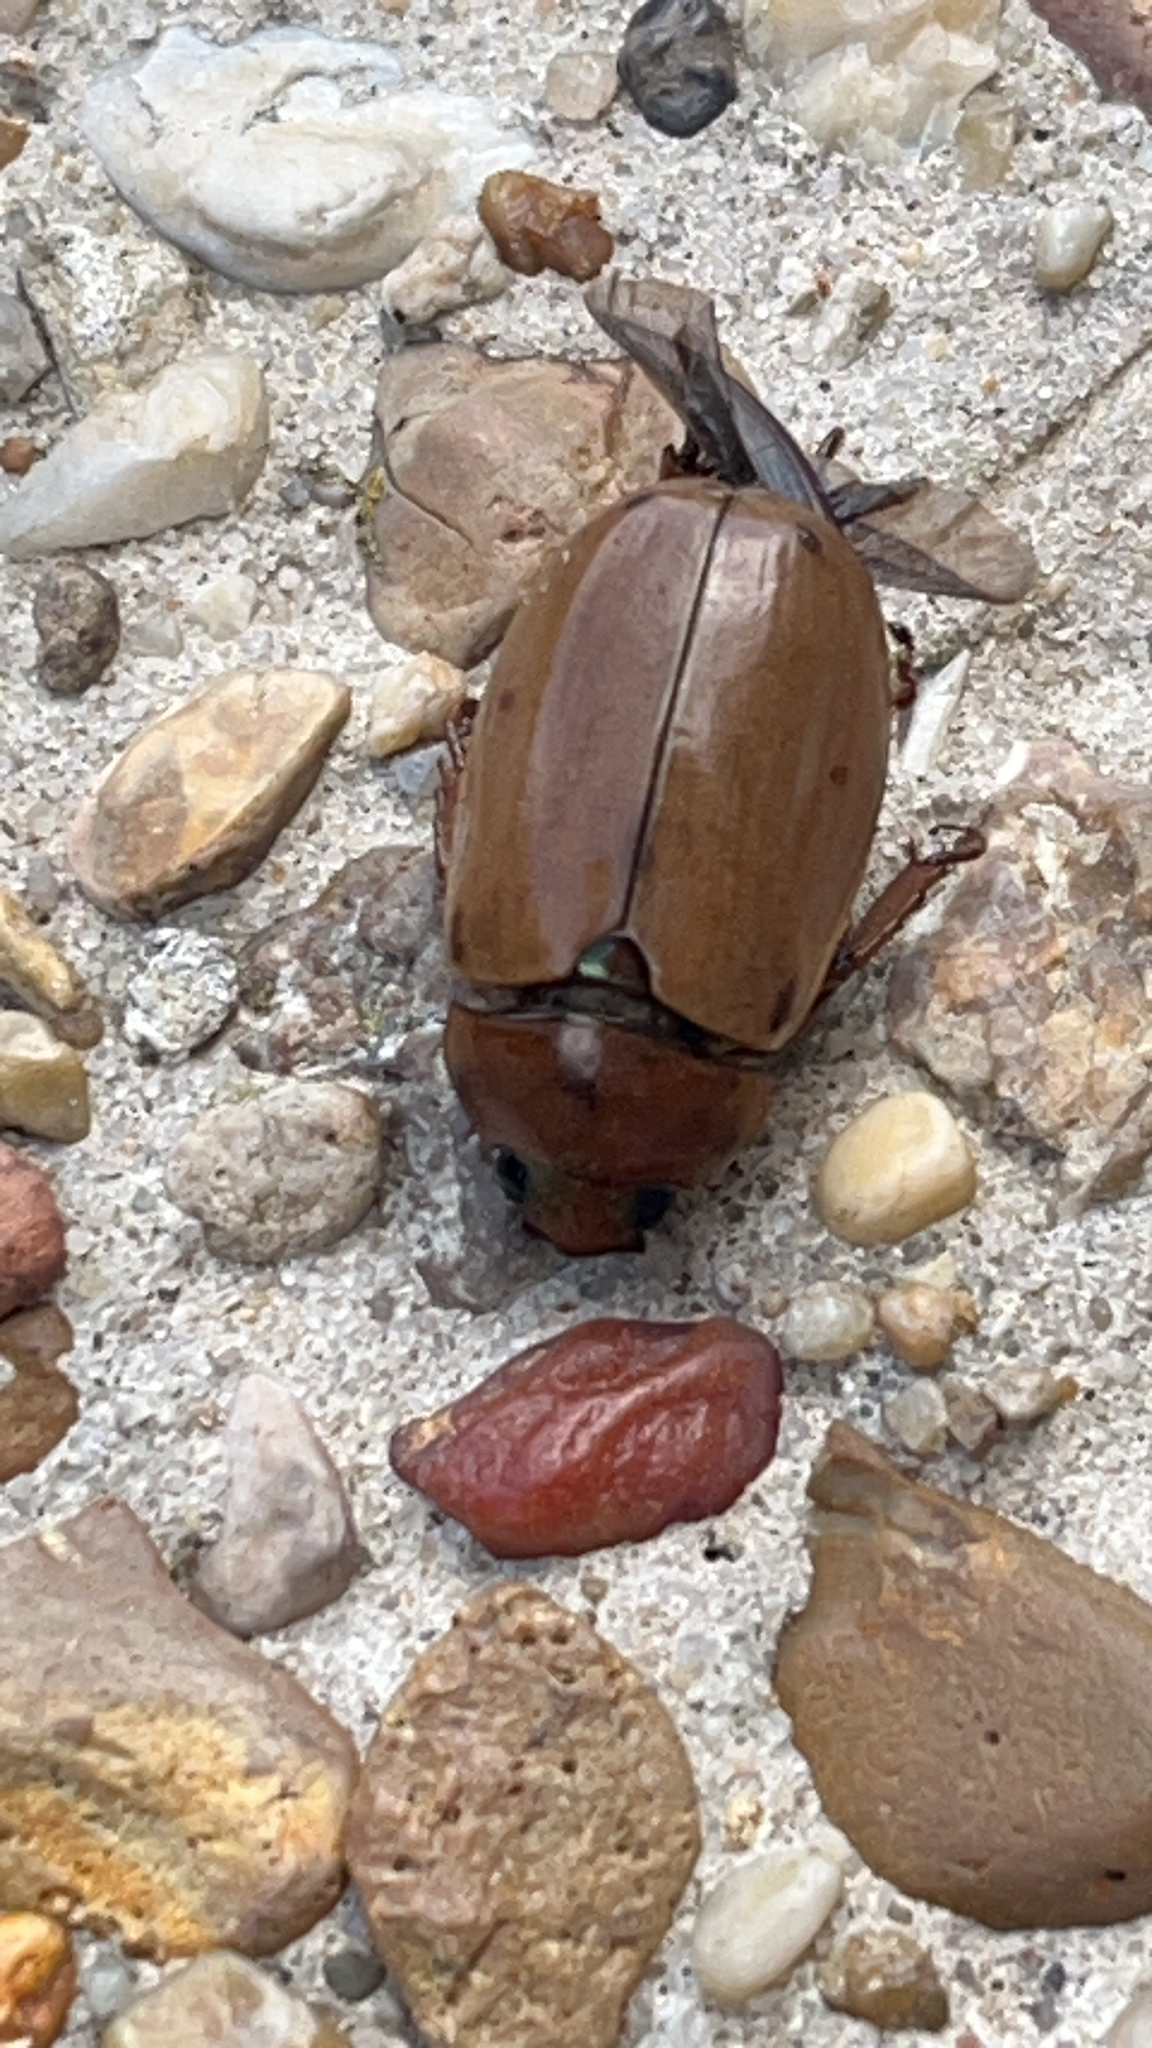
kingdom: Animalia
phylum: Arthropoda
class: Insecta
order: Coleoptera
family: Scarabaeidae
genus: Pelidnota
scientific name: Pelidnota punctata
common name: Grapevine beetle
